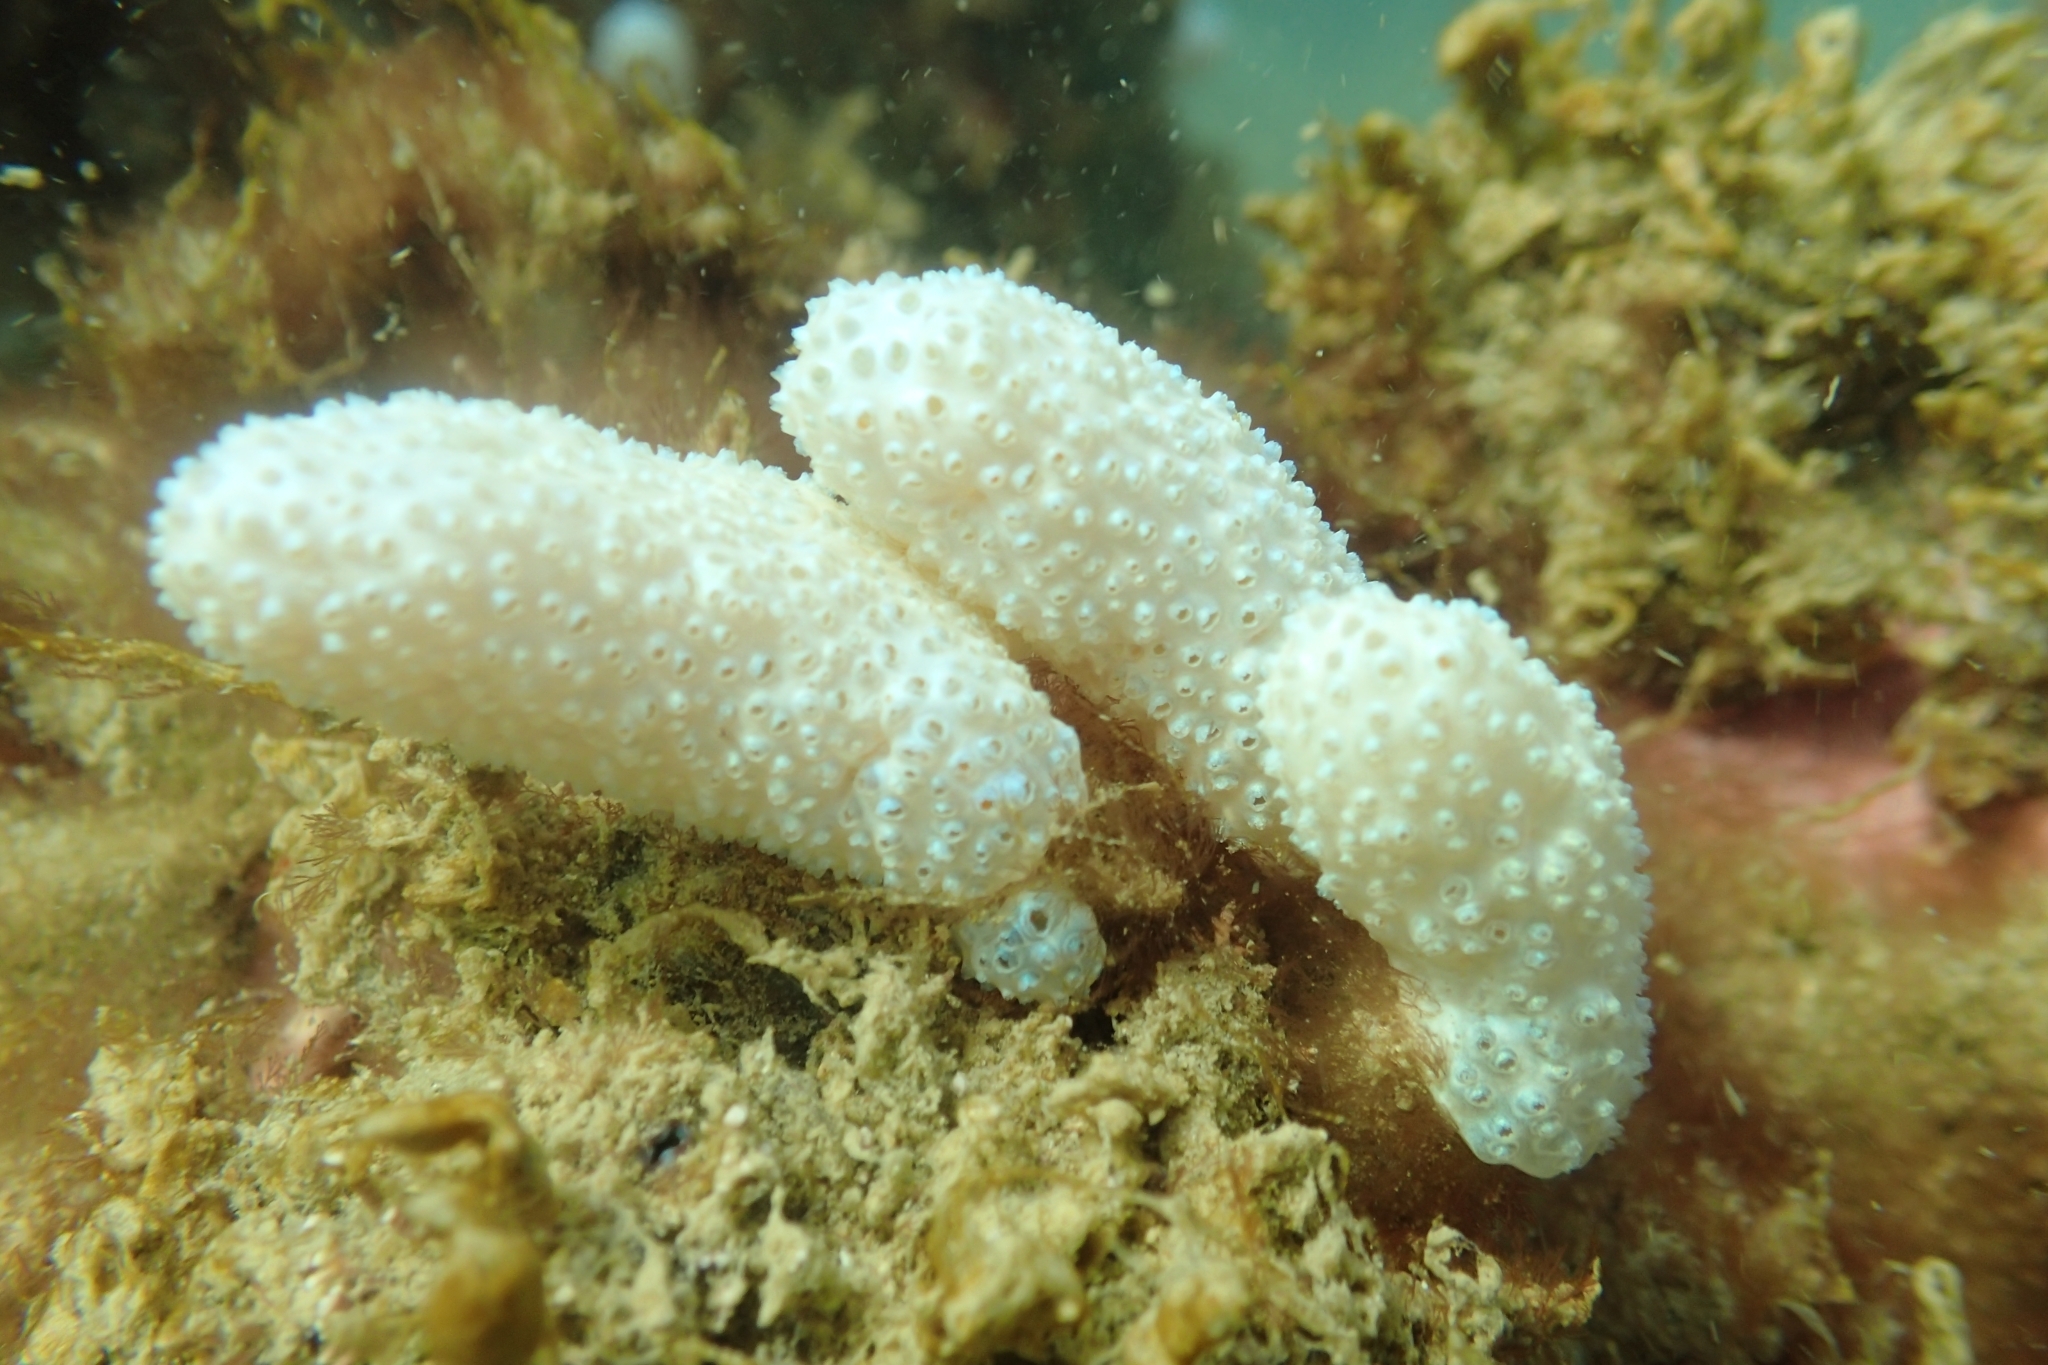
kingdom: Animalia
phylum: Chordata
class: Ascidiacea
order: Aplousobranchia
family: Polycitoridae
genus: Eudistoma
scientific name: Eudistoma elongatum
